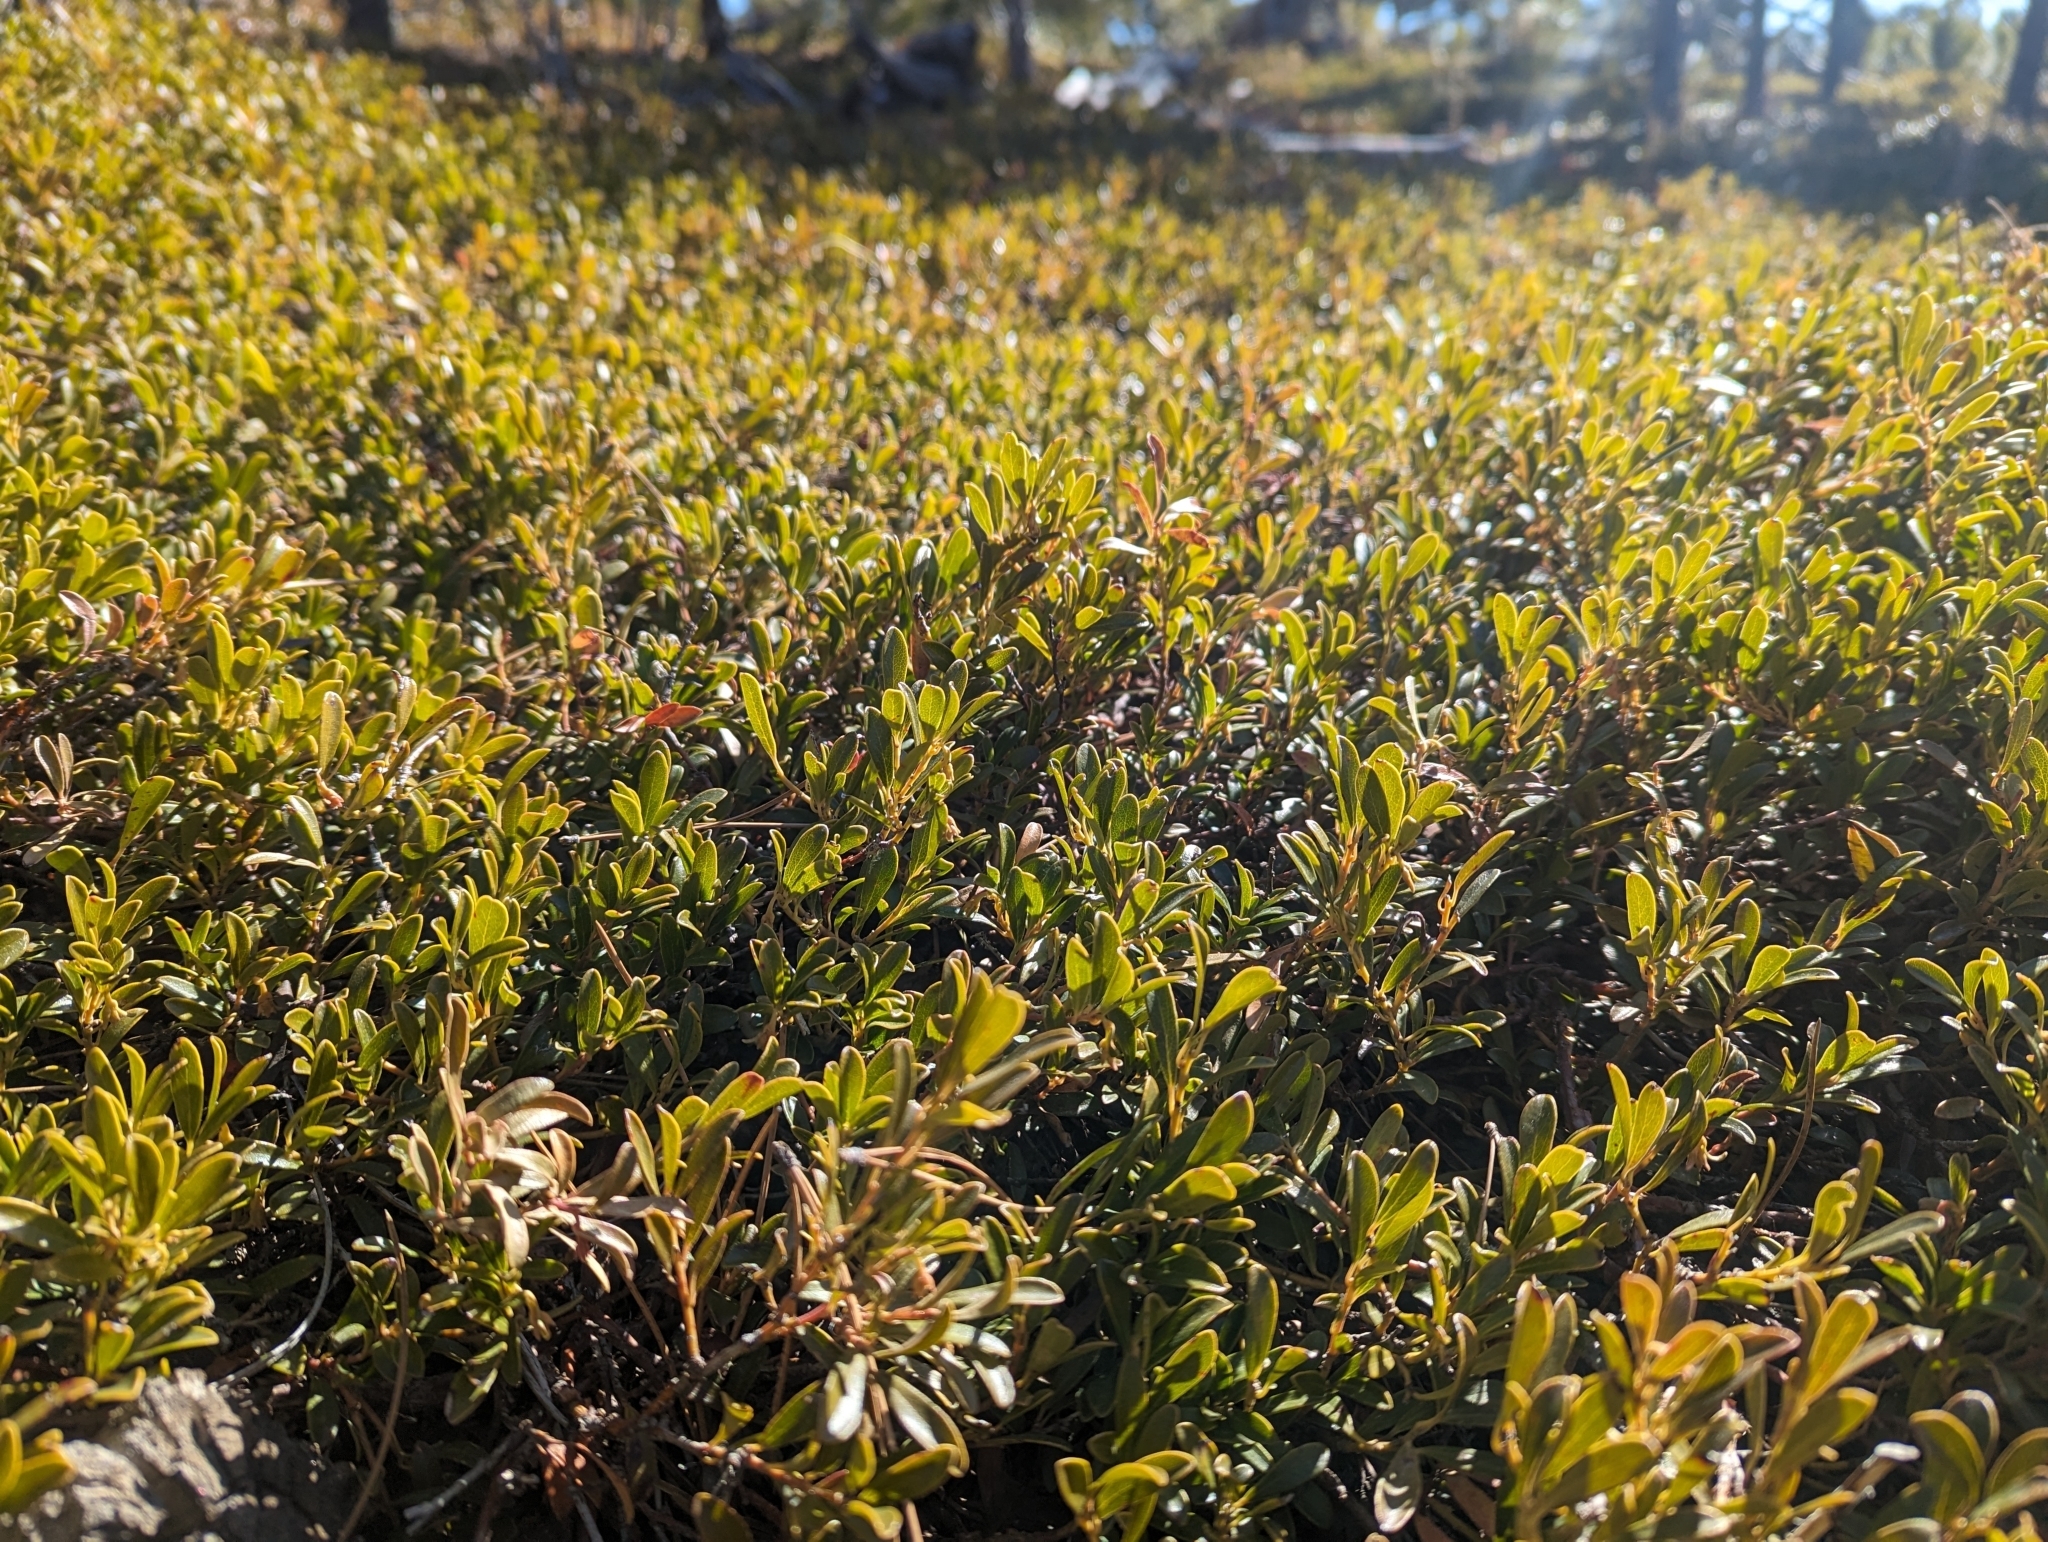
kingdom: Plantae
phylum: Tracheophyta
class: Magnoliopsida
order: Ericales
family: Ericaceae
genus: Arctostaphylos
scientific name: Arctostaphylos uva-ursi
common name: Bearberry
